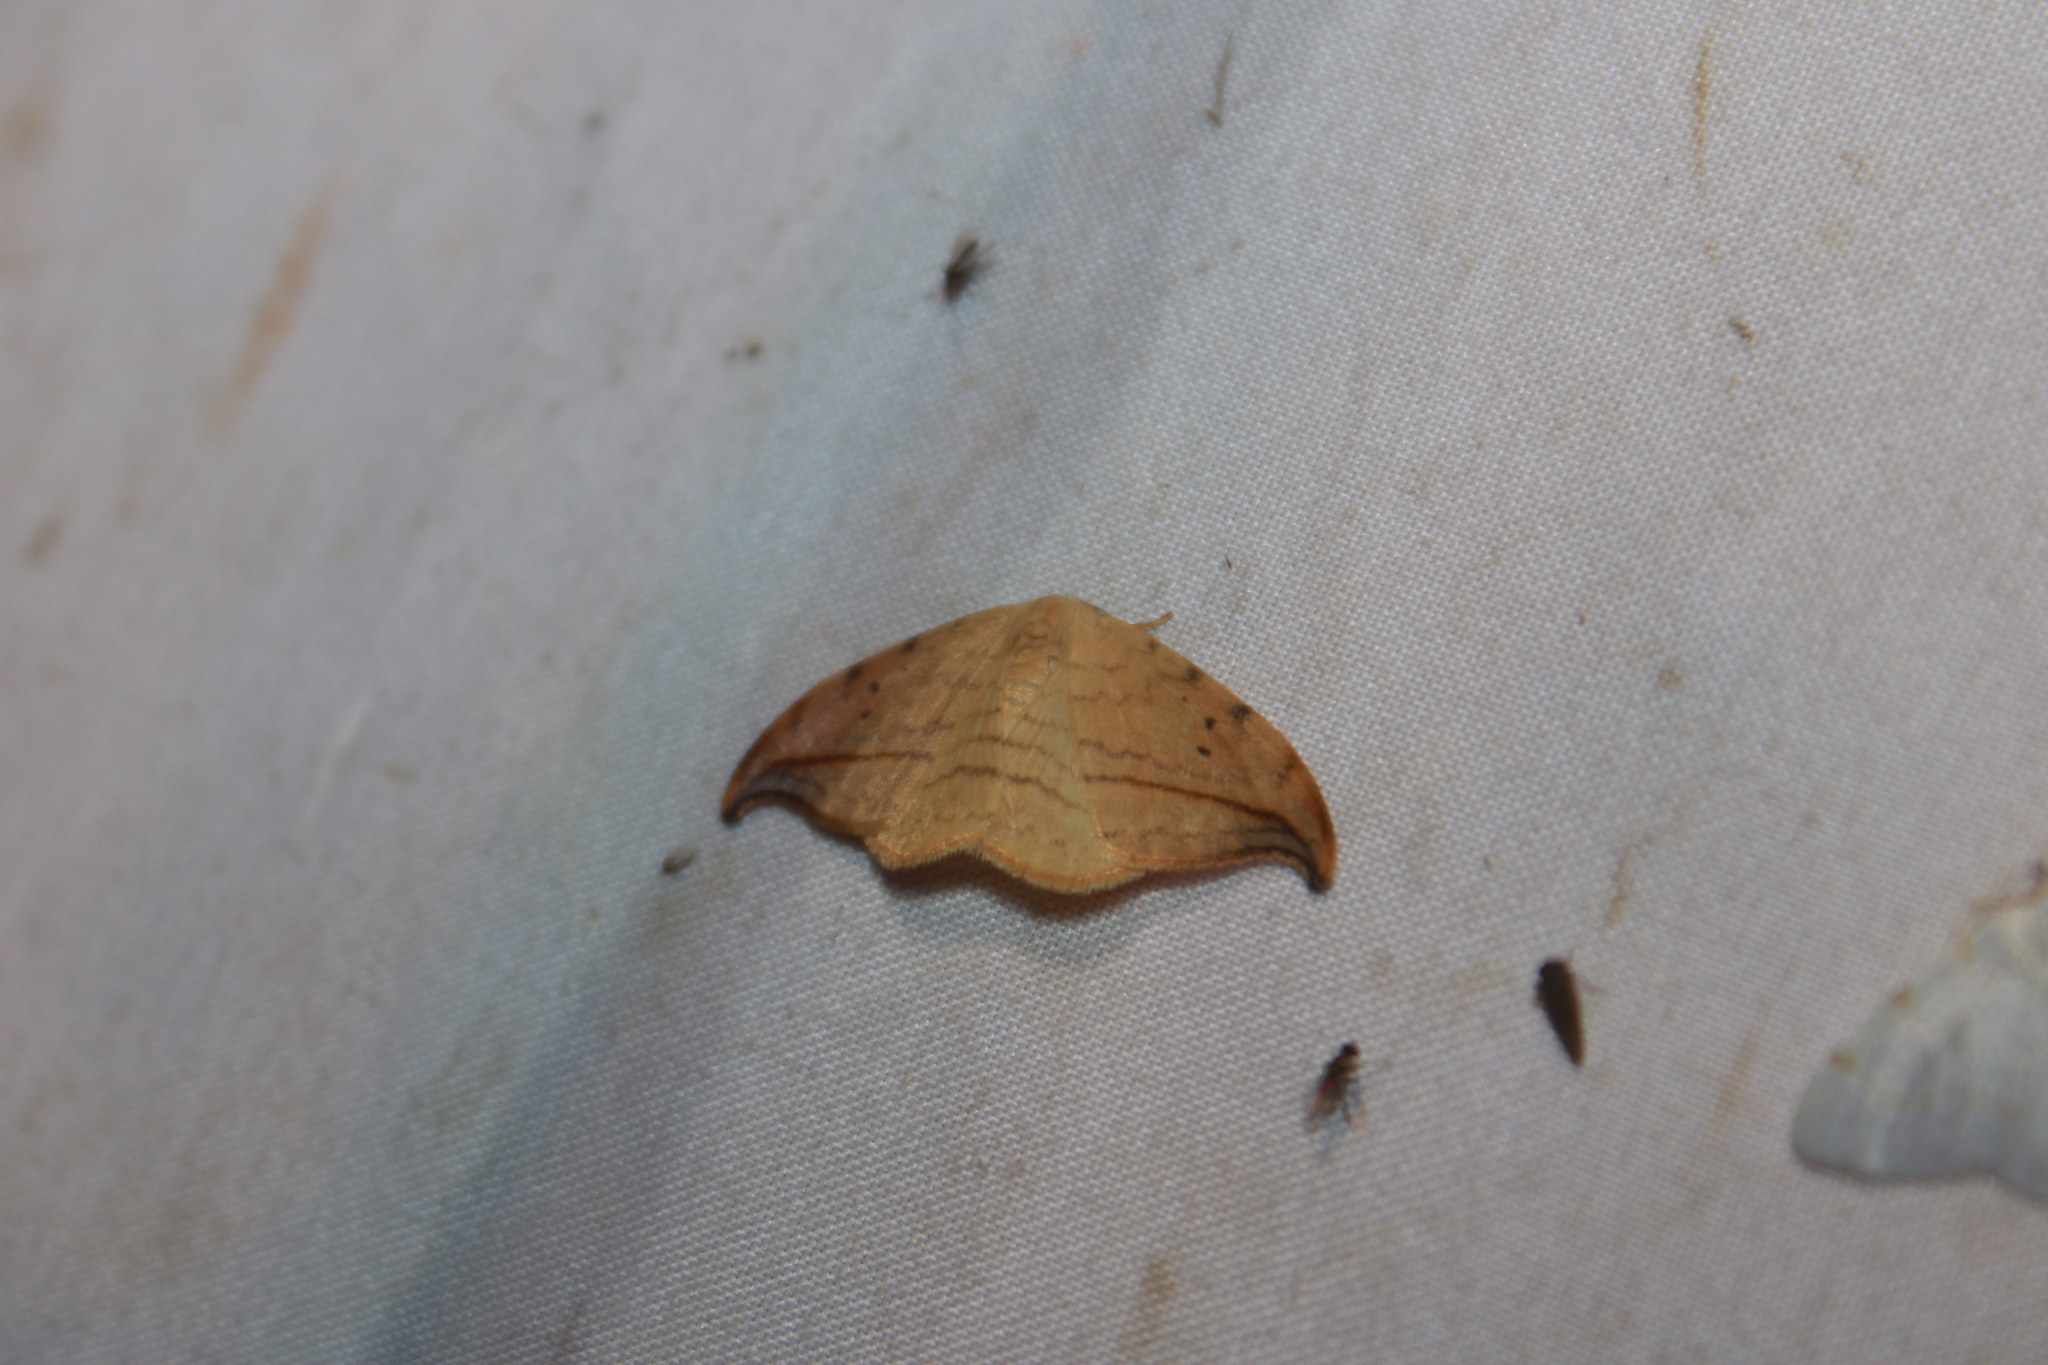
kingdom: Animalia
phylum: Arthropoda
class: Insecta
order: Lepidoptera
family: Drepanidae
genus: Drepana
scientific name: Drepana arcuata
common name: Arched hooktip moth
